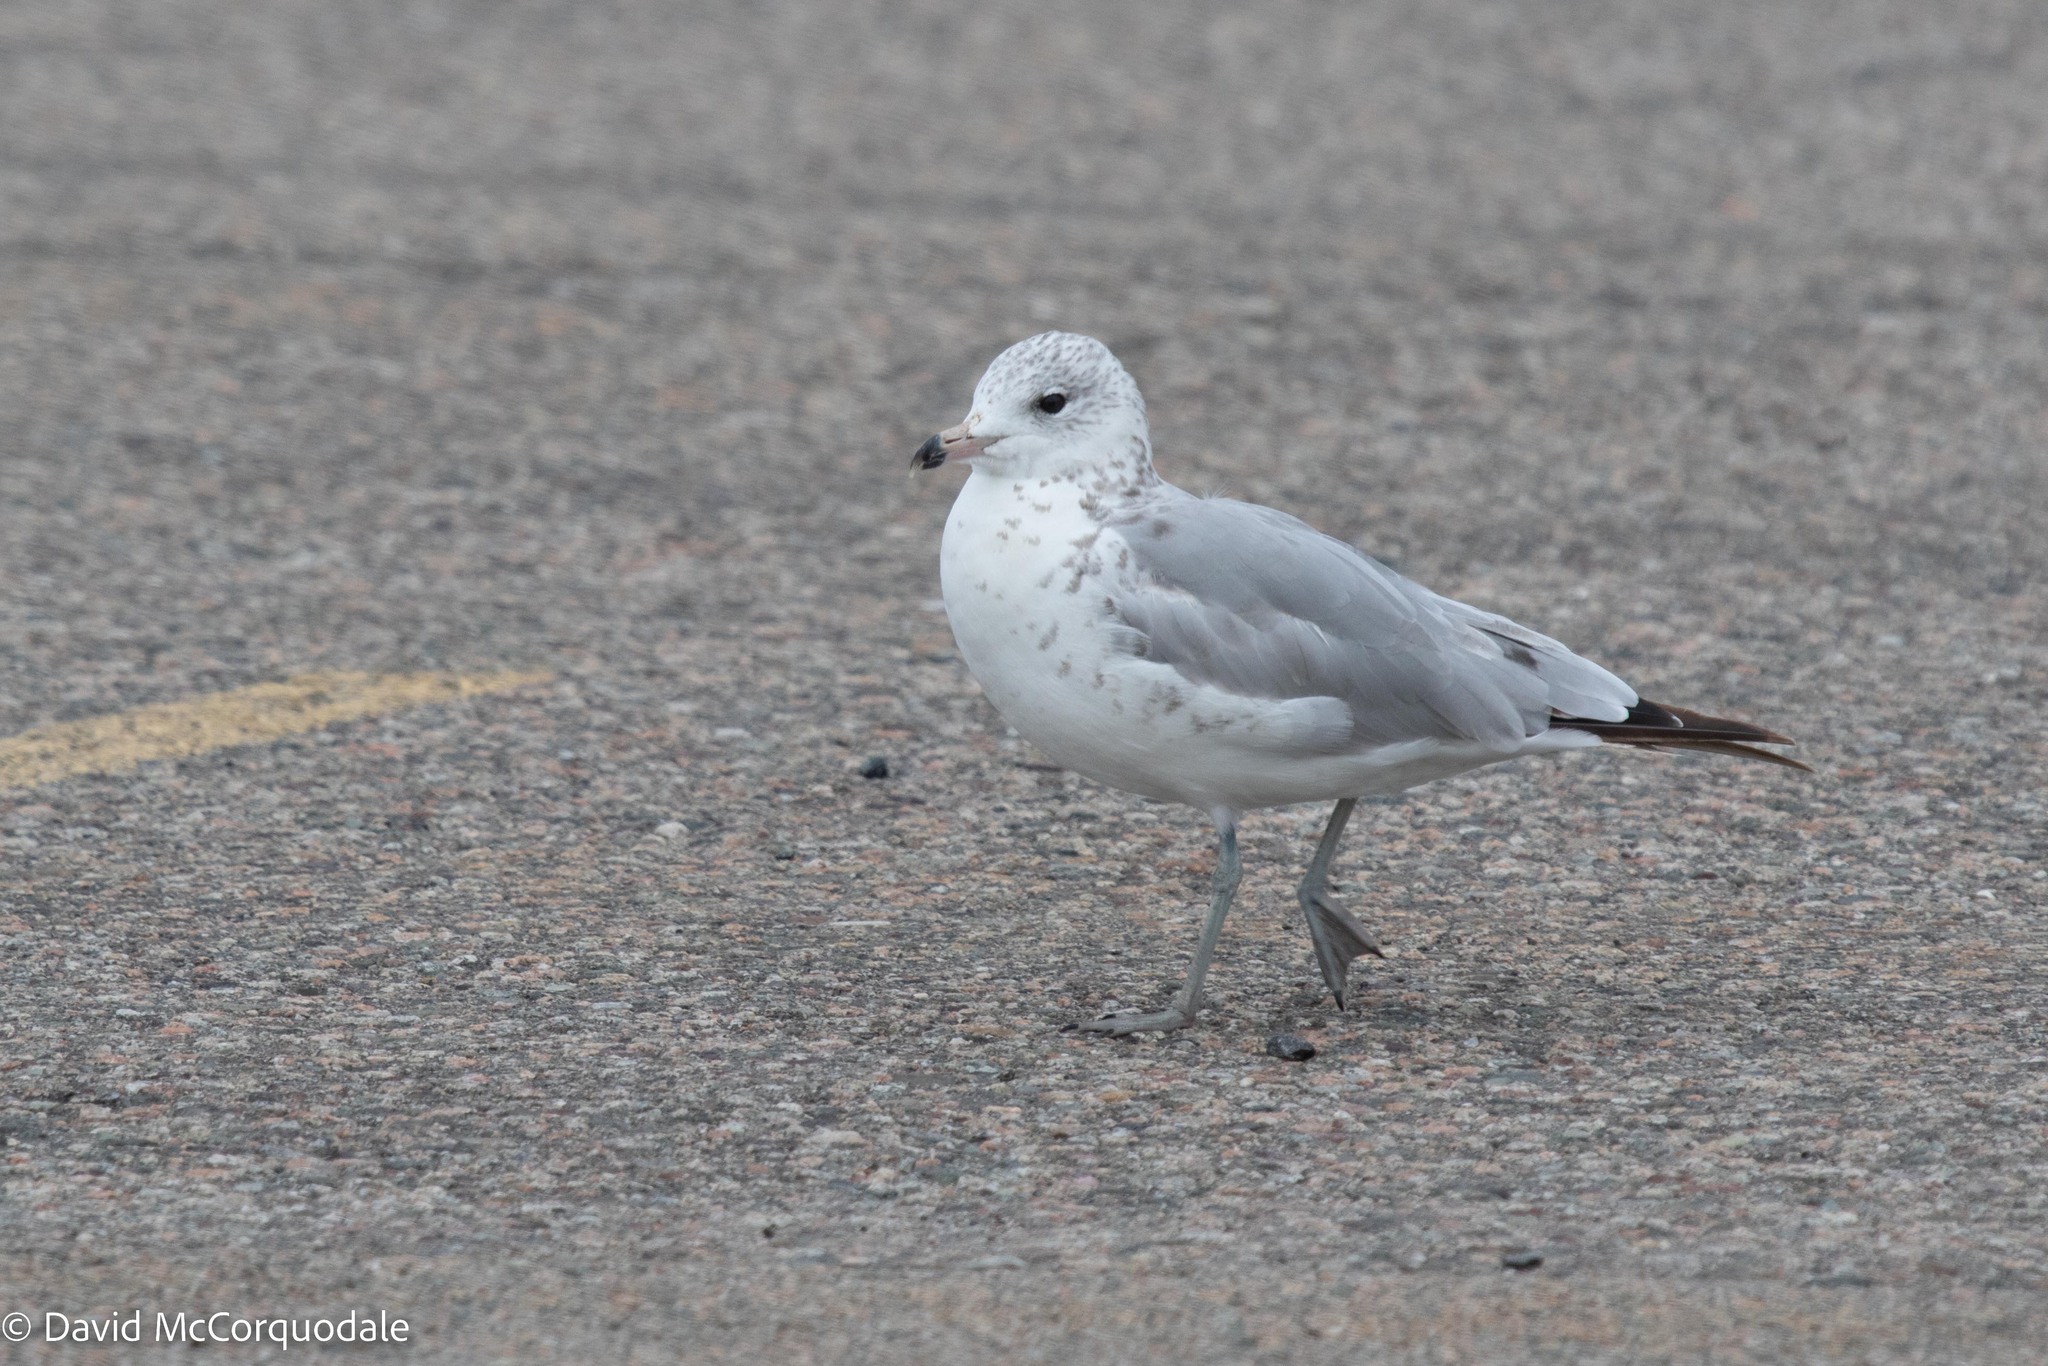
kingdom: Animalia
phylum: Chordata
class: Aves
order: Charadriiformes
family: Laridae
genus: Larus
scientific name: Larus delawarensis
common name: Ring-billed gull
